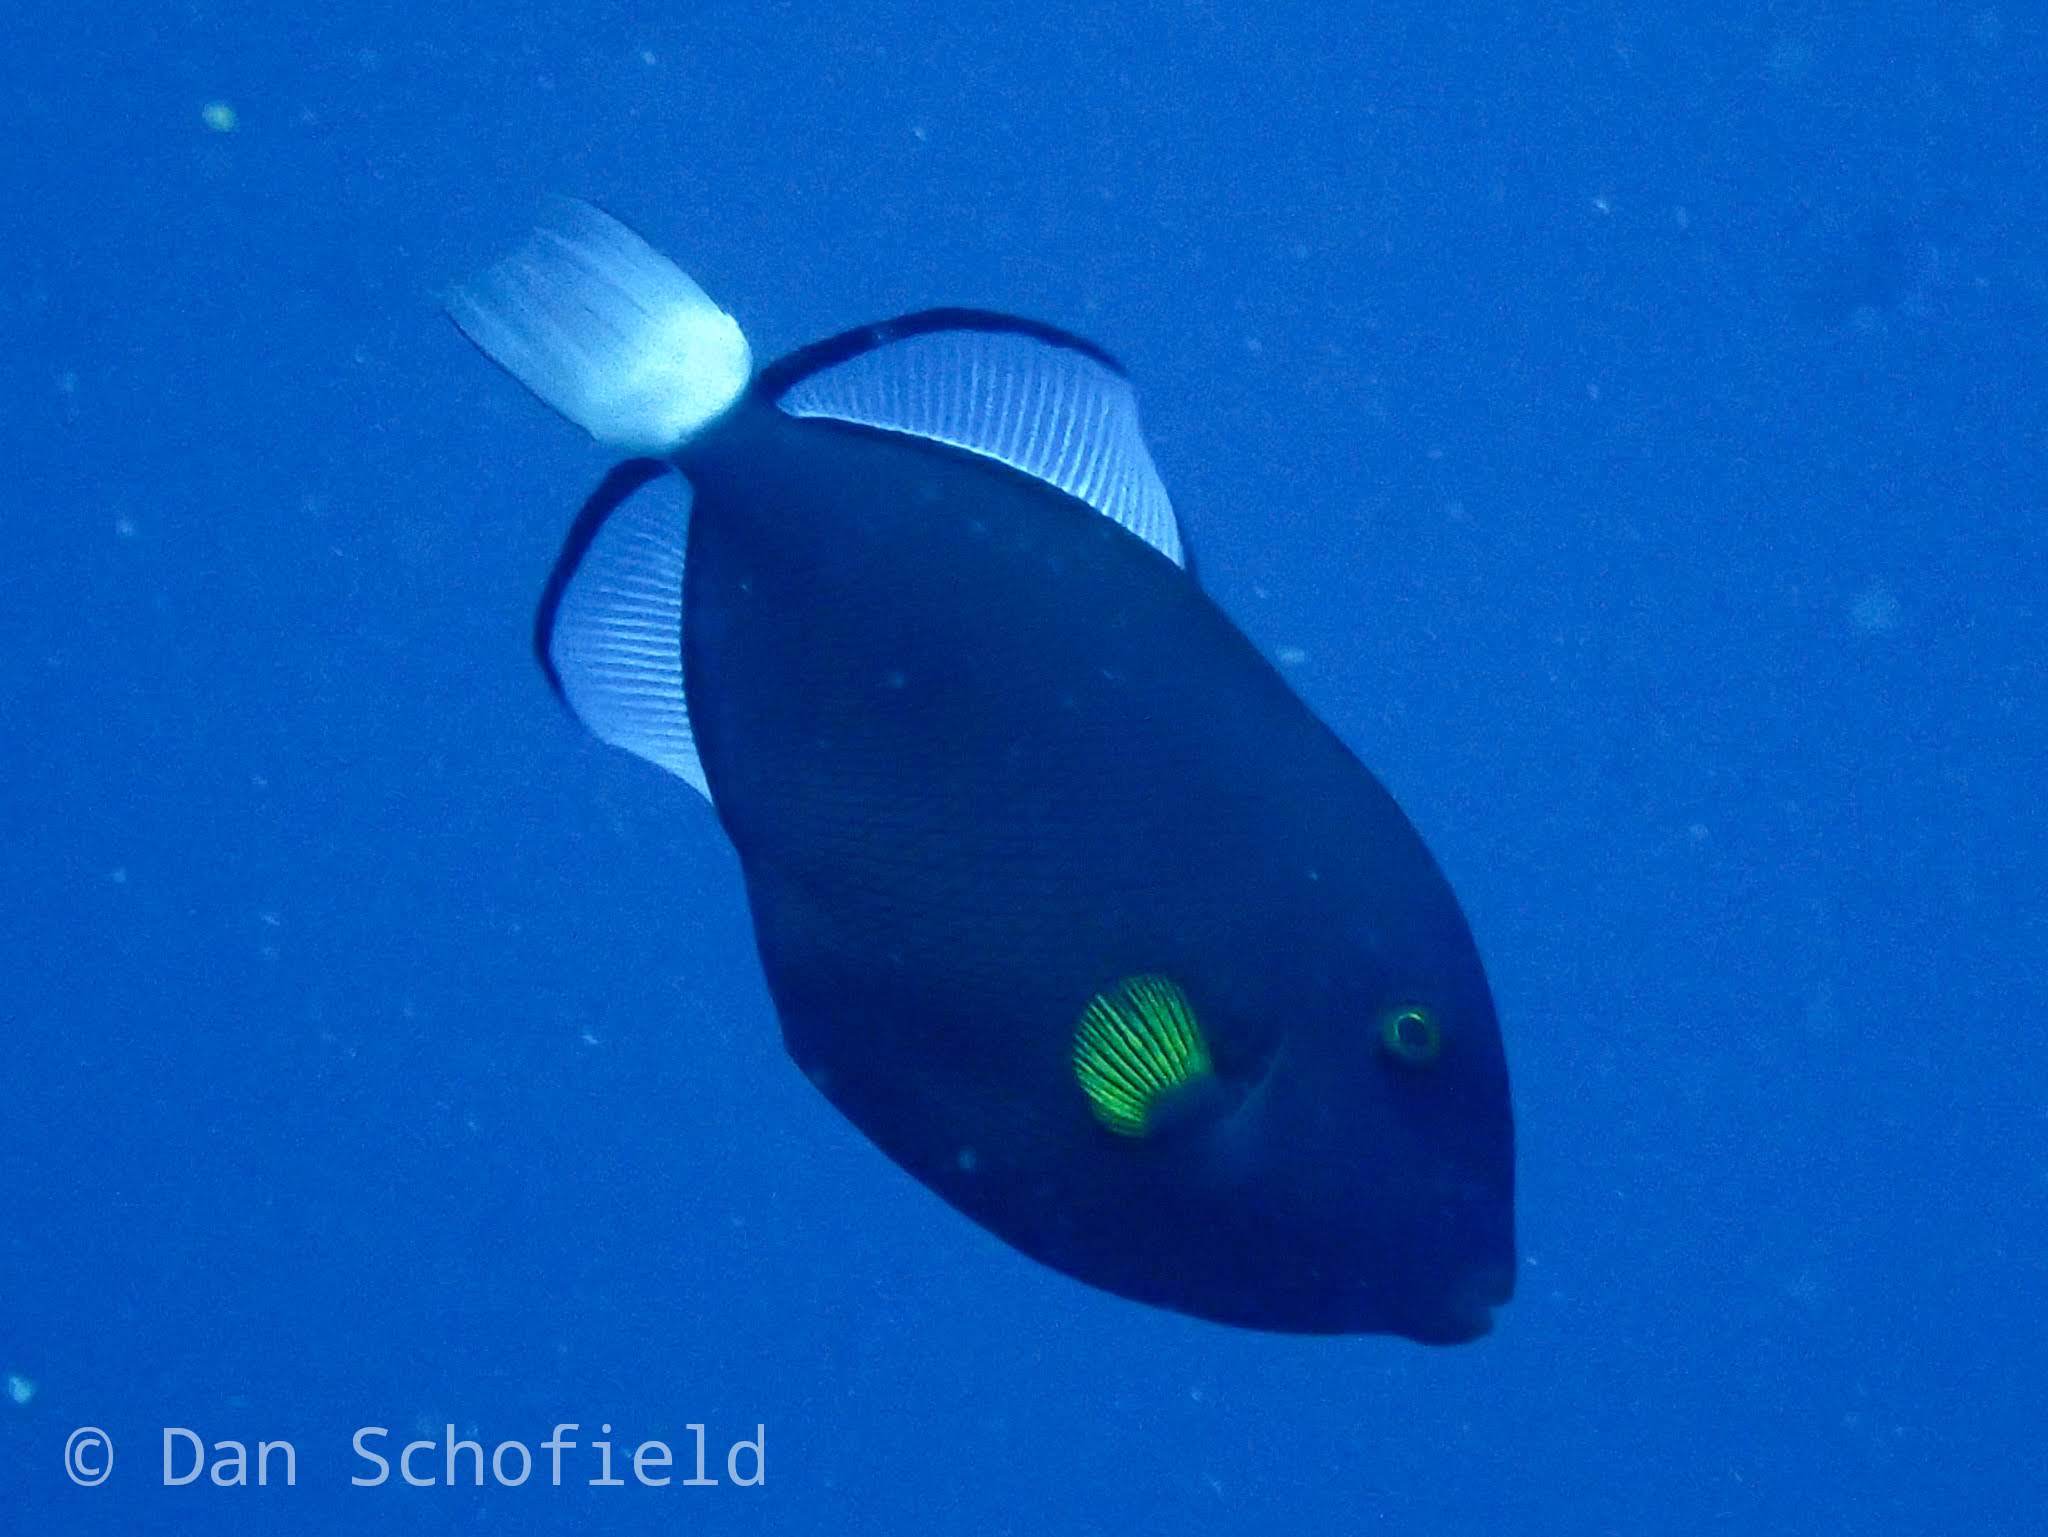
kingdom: Animalia
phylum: Chordata
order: Tetraodontiformes
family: Balistidae
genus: Melichthys
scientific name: Melichthys vidua
